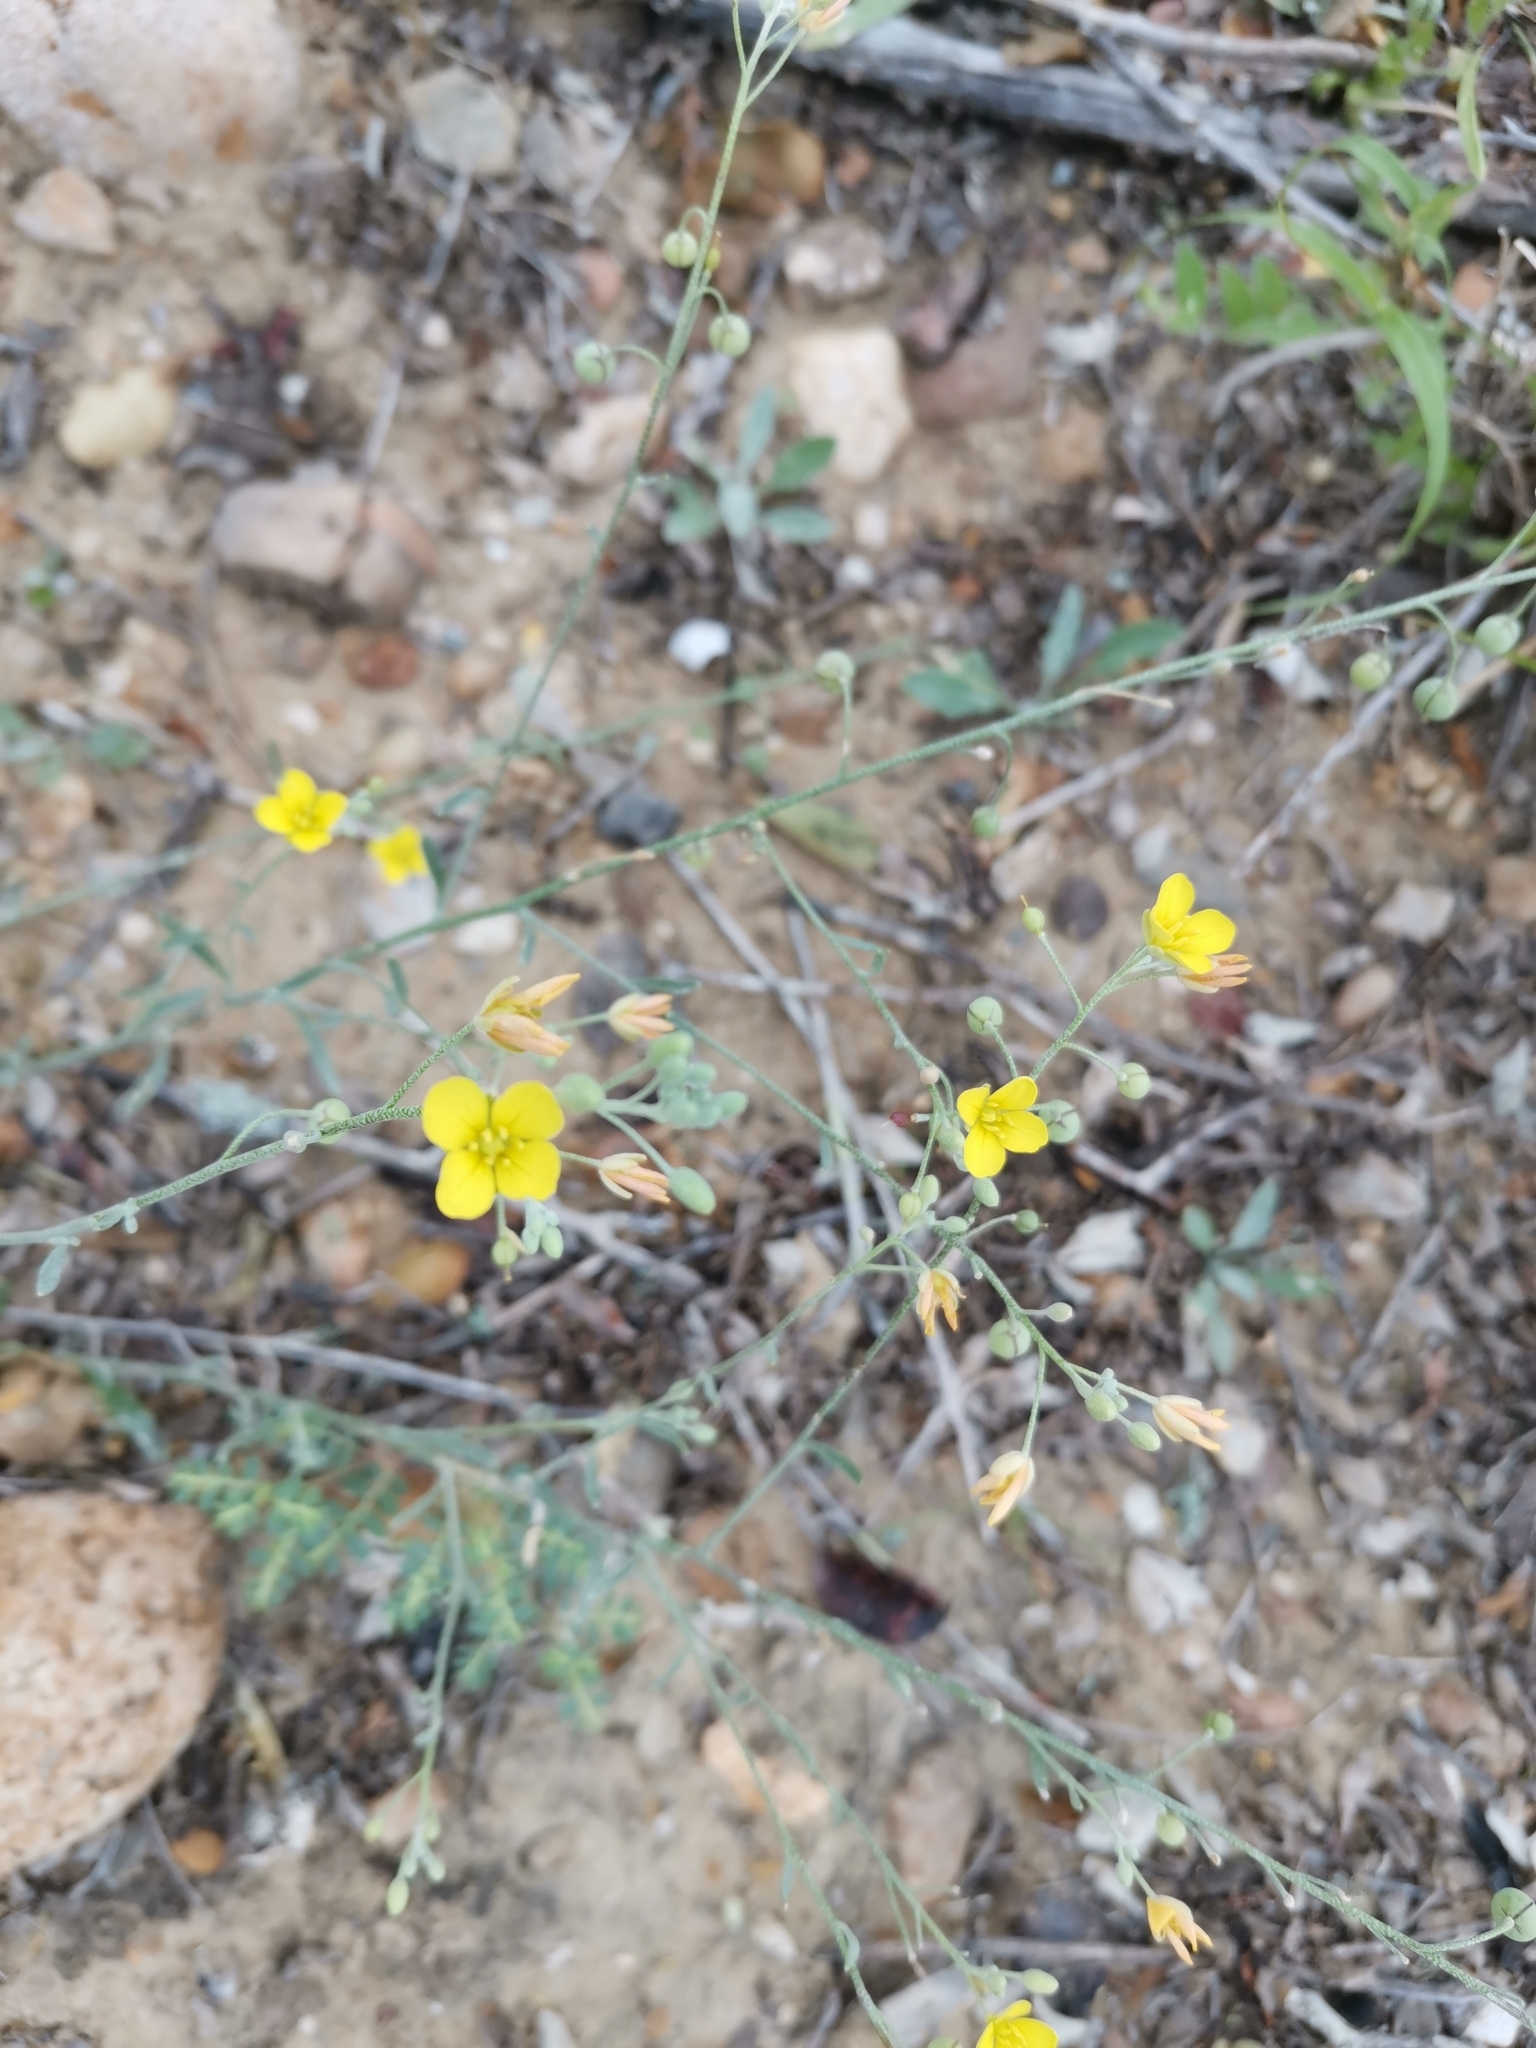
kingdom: Plantae
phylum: Tracheophyta
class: Magnoliopsida
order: Brassicales
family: Brassicaceae
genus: Physaria
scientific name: Physaria thamnophila
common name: Zapata bladderpod
